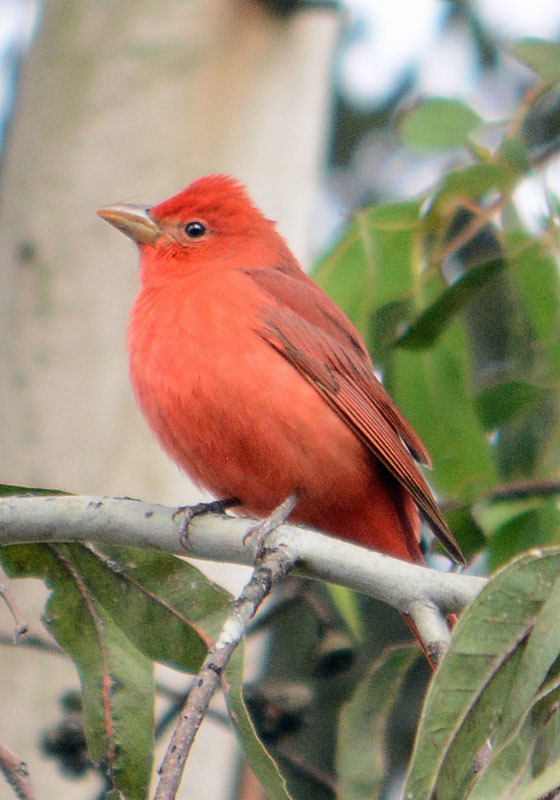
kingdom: Animalia
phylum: Chordata
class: Aves
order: Passeriformes
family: Cardinalidae
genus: Piranga
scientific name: Piranga rubra
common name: Summer tanager
